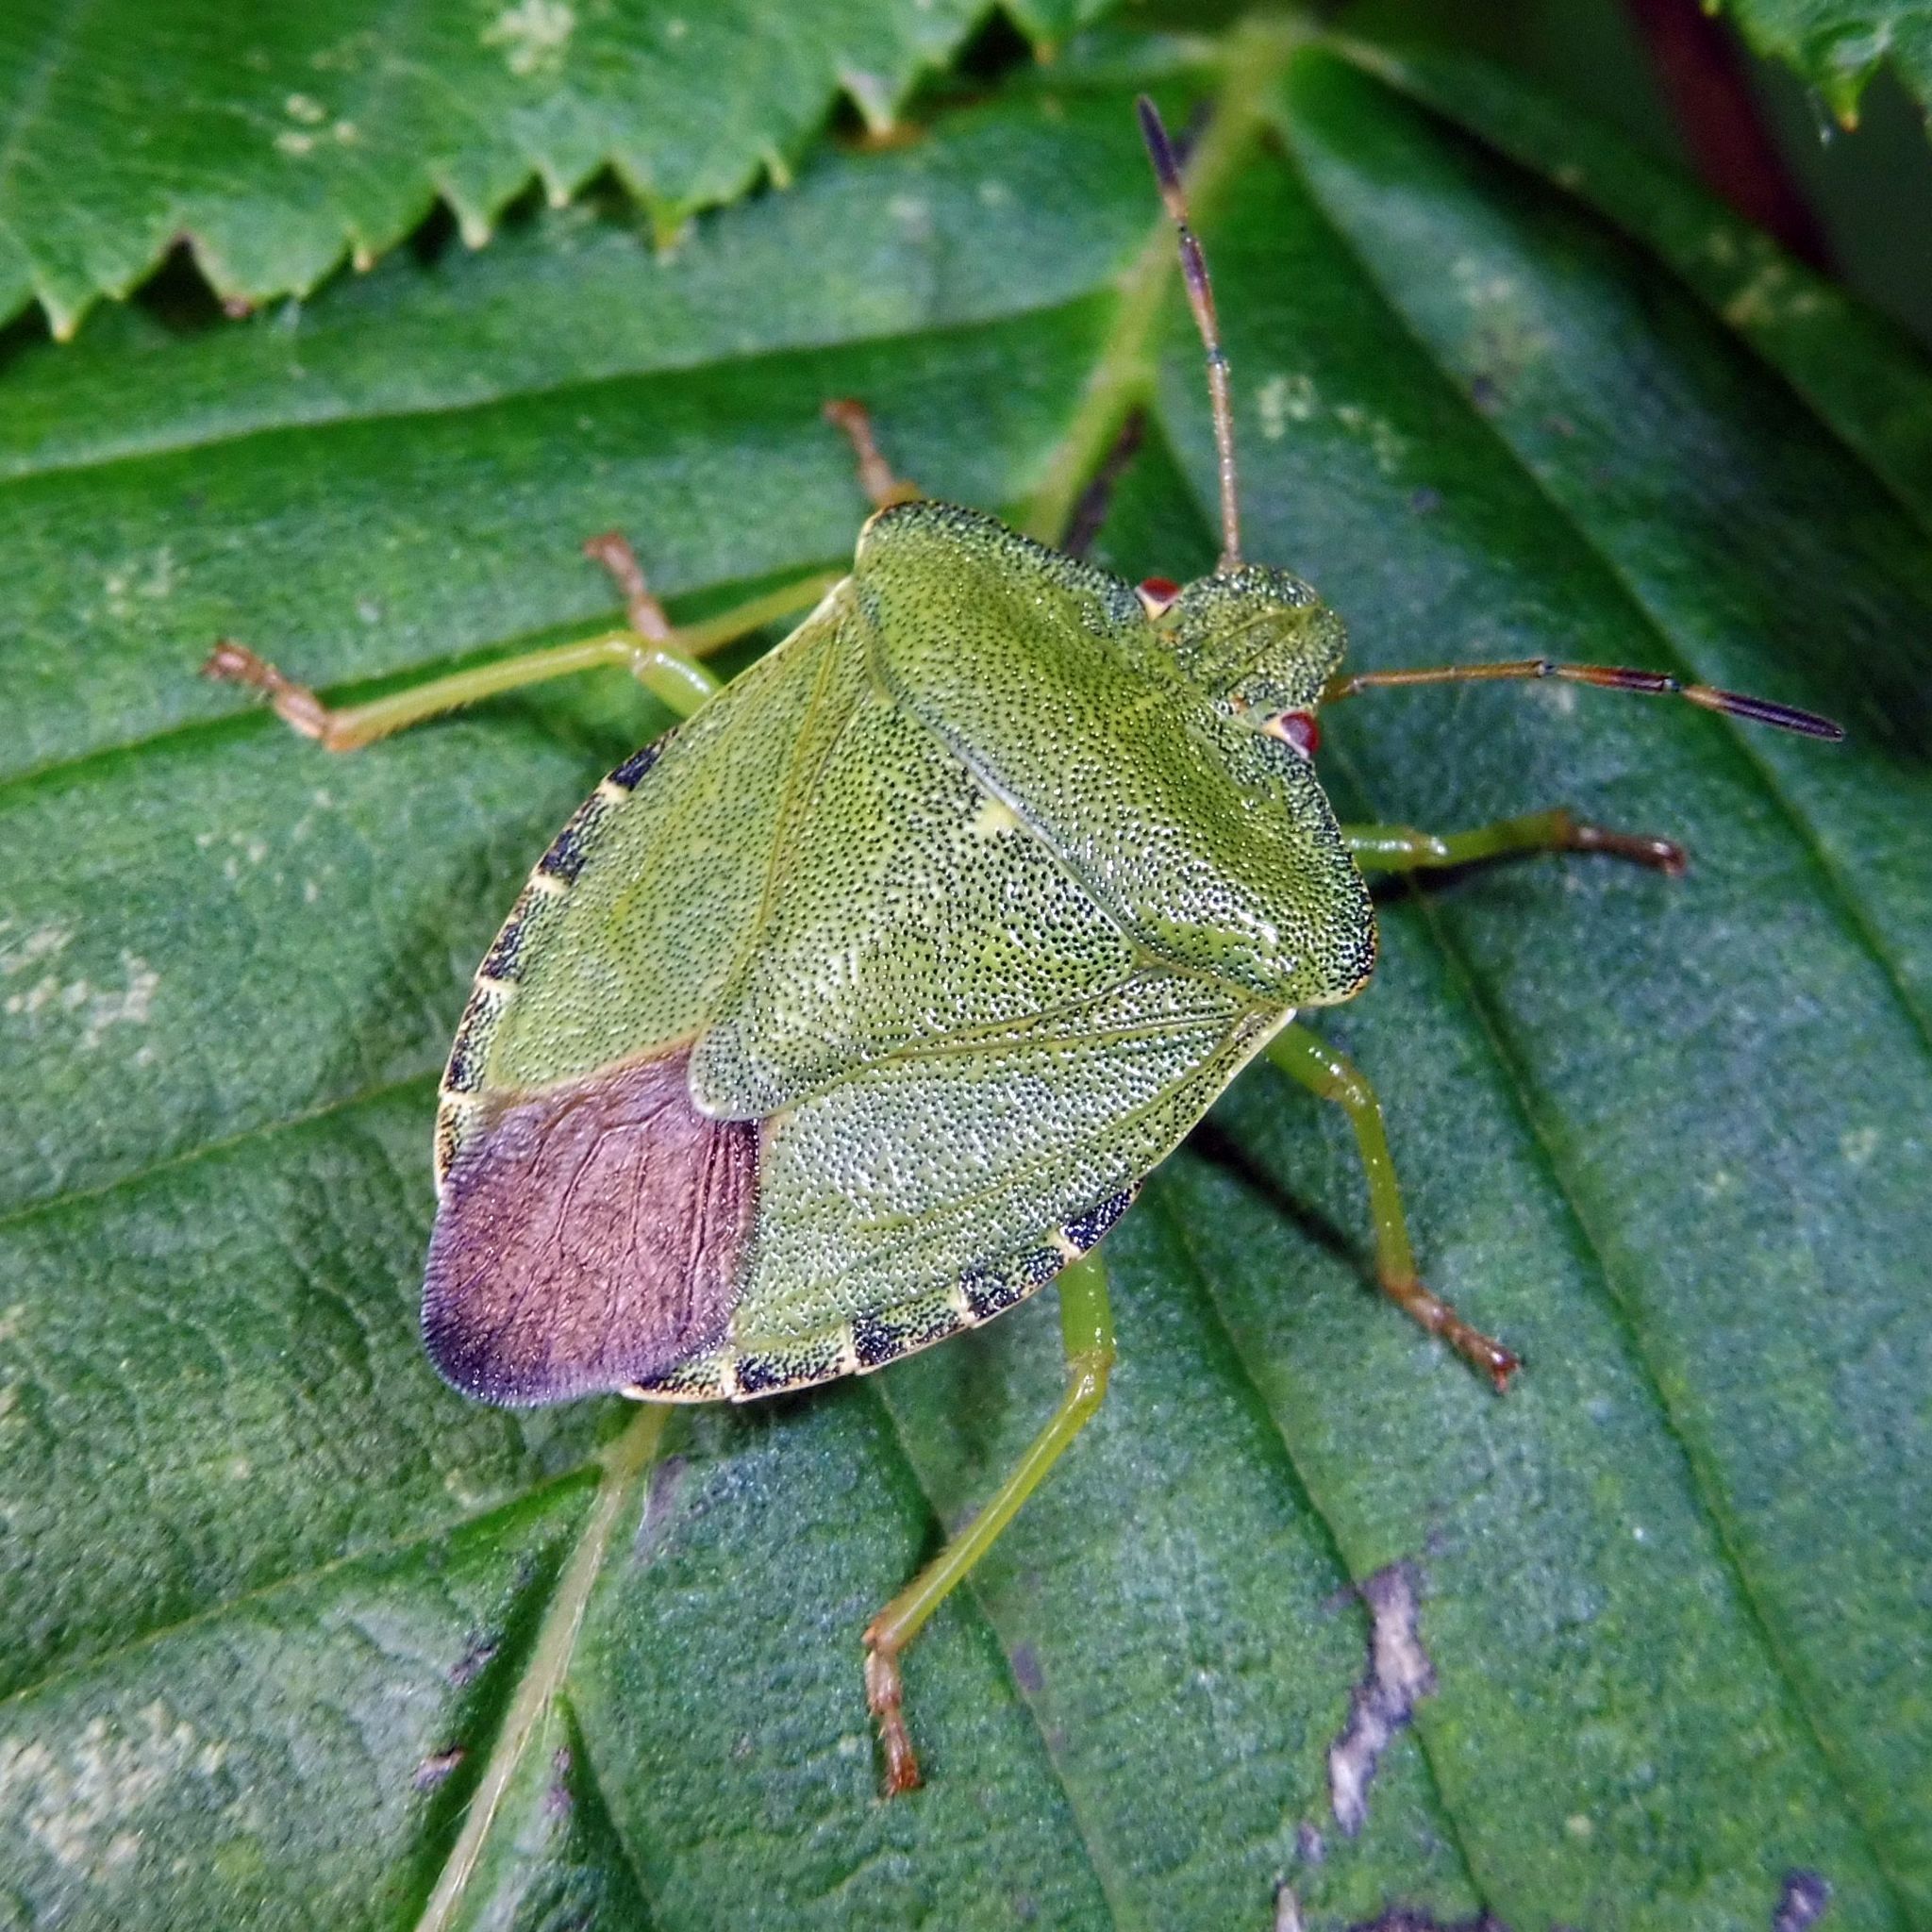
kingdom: Animalia
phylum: Arthropoda
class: Insecta
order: Hemiptera
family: Pentatomidae
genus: Palomena
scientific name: Palomena prasina
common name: Green shieldbug
